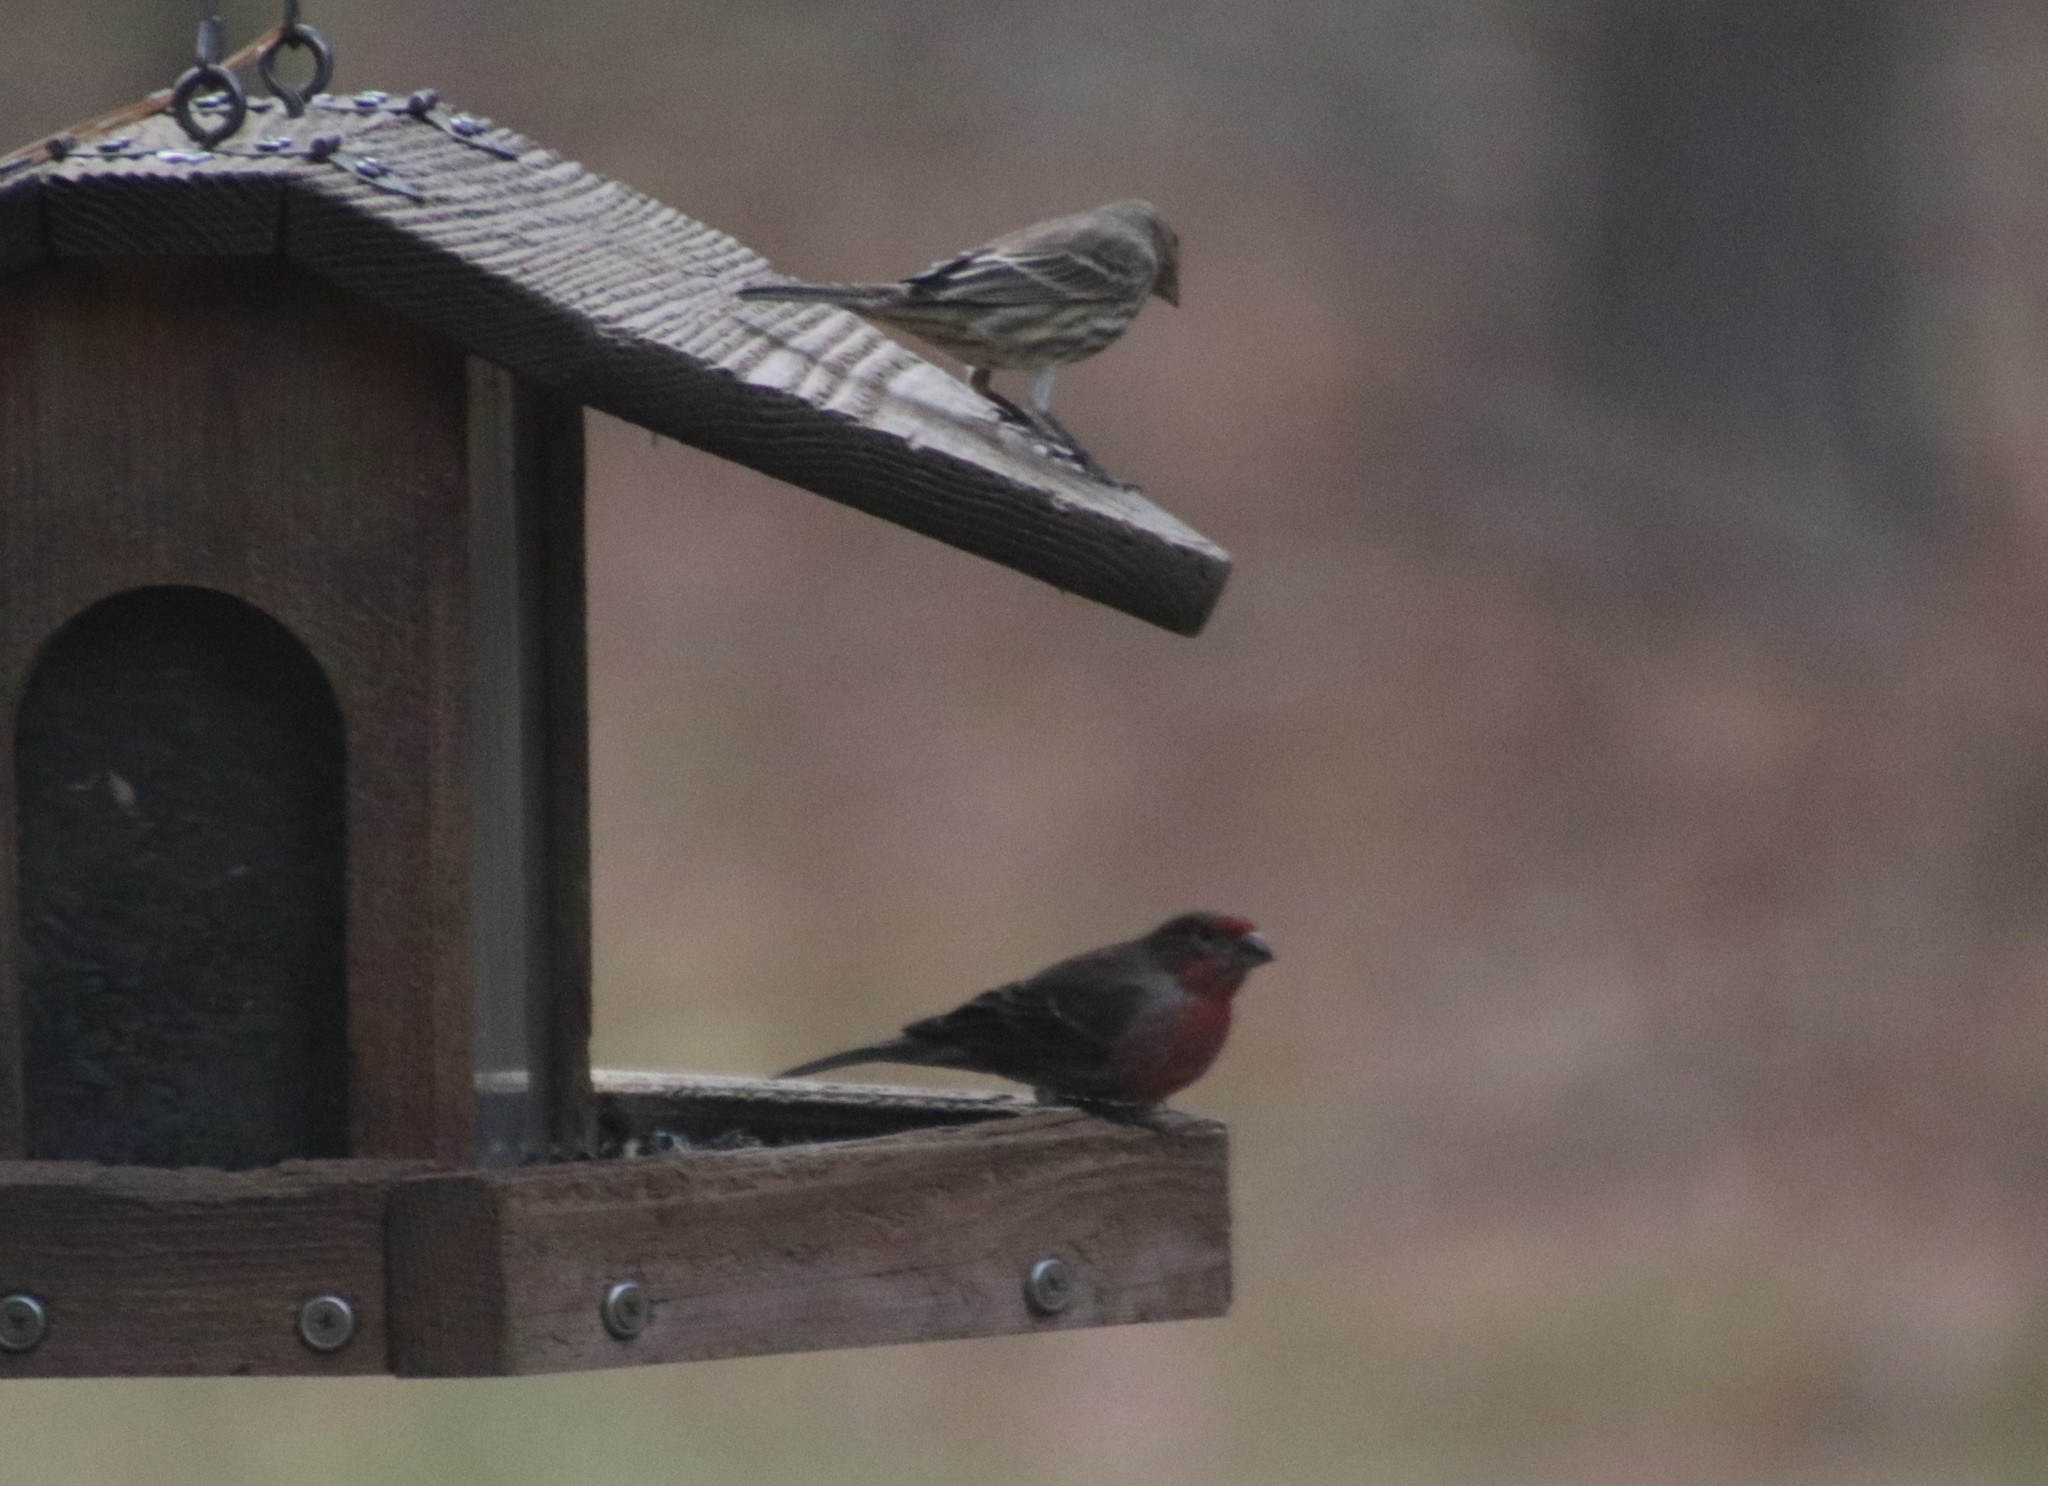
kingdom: Animalia
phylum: Chordata
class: Aves
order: Passeriformes
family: Fringillidae
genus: Haemorhous
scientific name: Haemorhous mexicanus
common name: House finch
